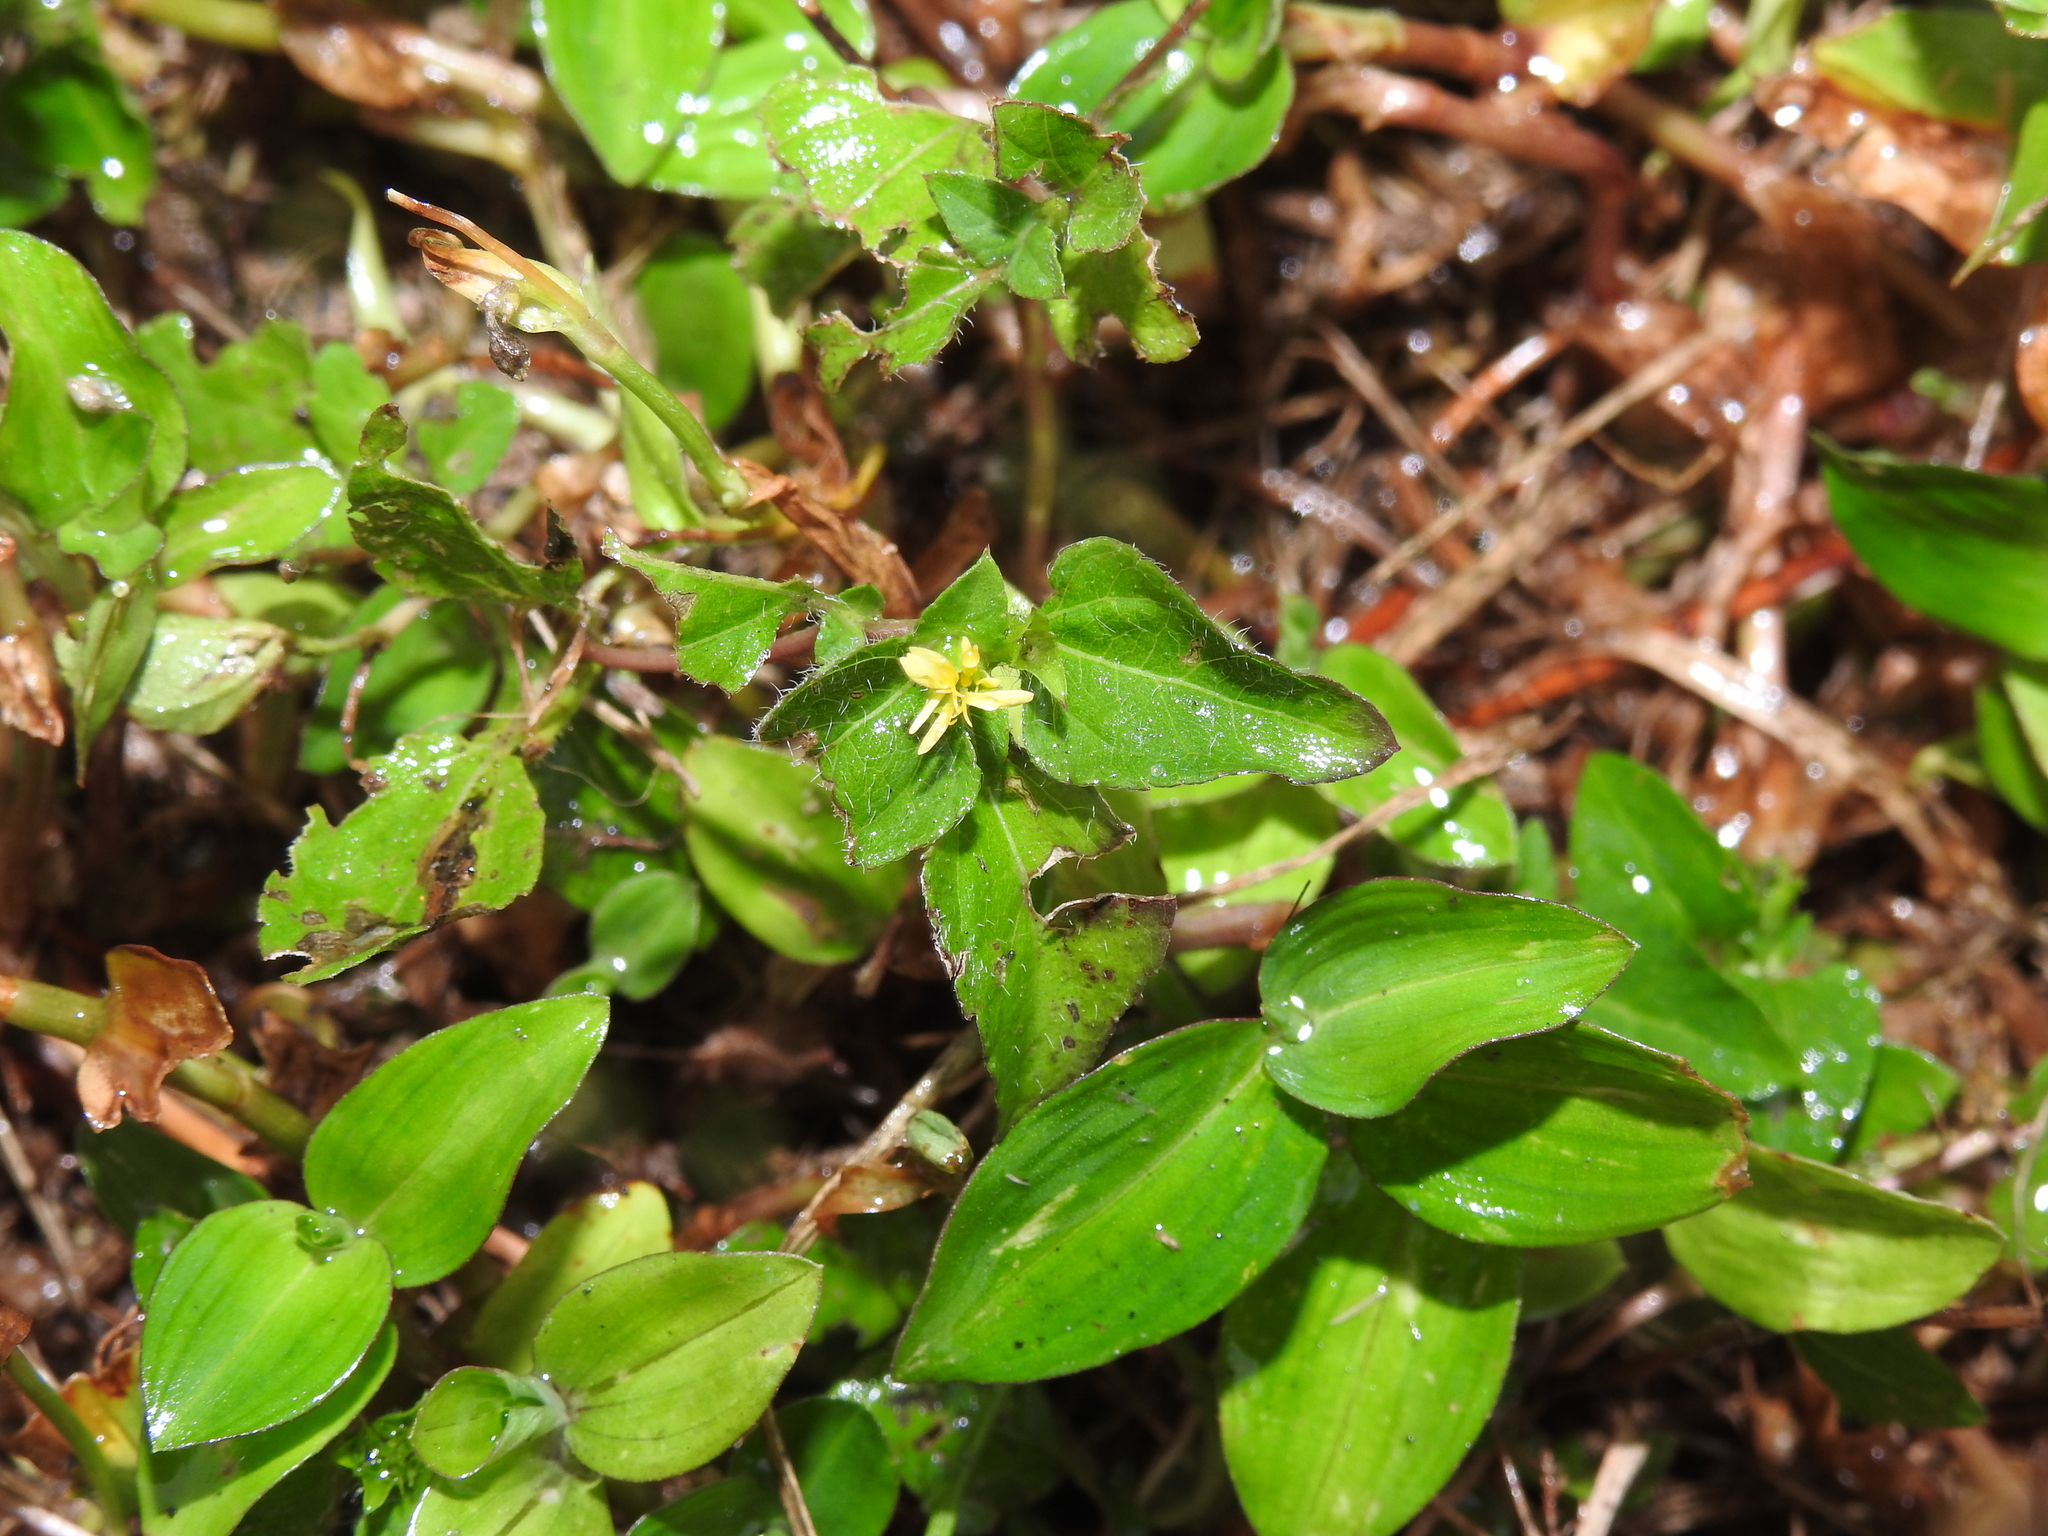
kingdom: Plantae
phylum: Tracheophyta
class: Magnoliopsida
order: Asterales
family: Asteraceae
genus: Calyptocarpus
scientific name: Calyptocarpus vialis
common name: Straggler daisy
